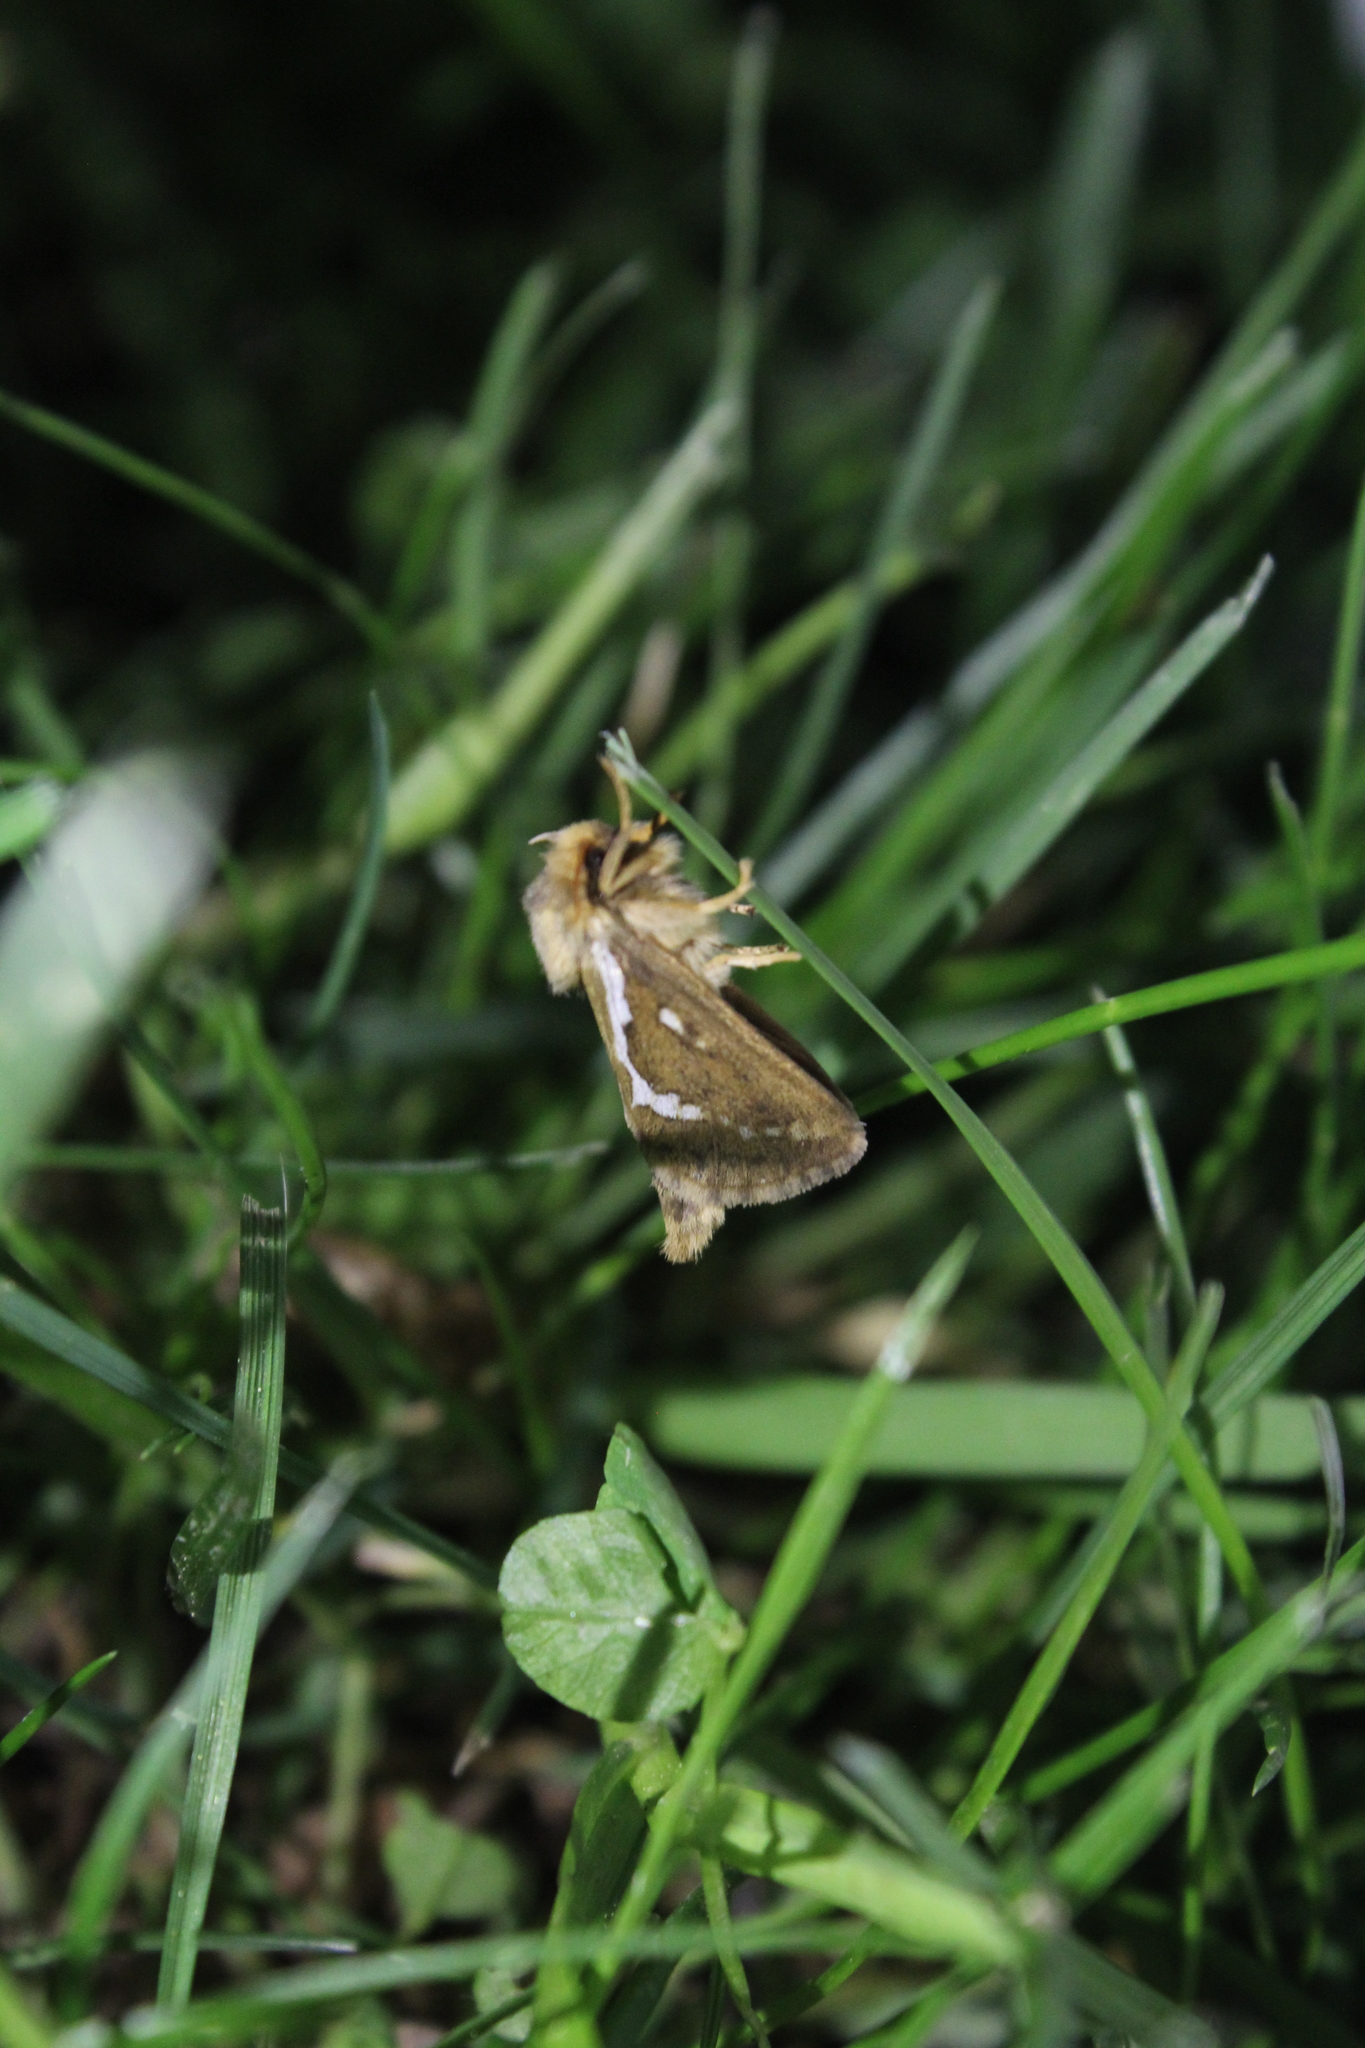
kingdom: Animalia
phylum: Arthropoda
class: Insecta
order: Lepidoptera
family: Hepialidae
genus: Korscheltellus
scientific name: Korscheltellus lupulina
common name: Common swift
